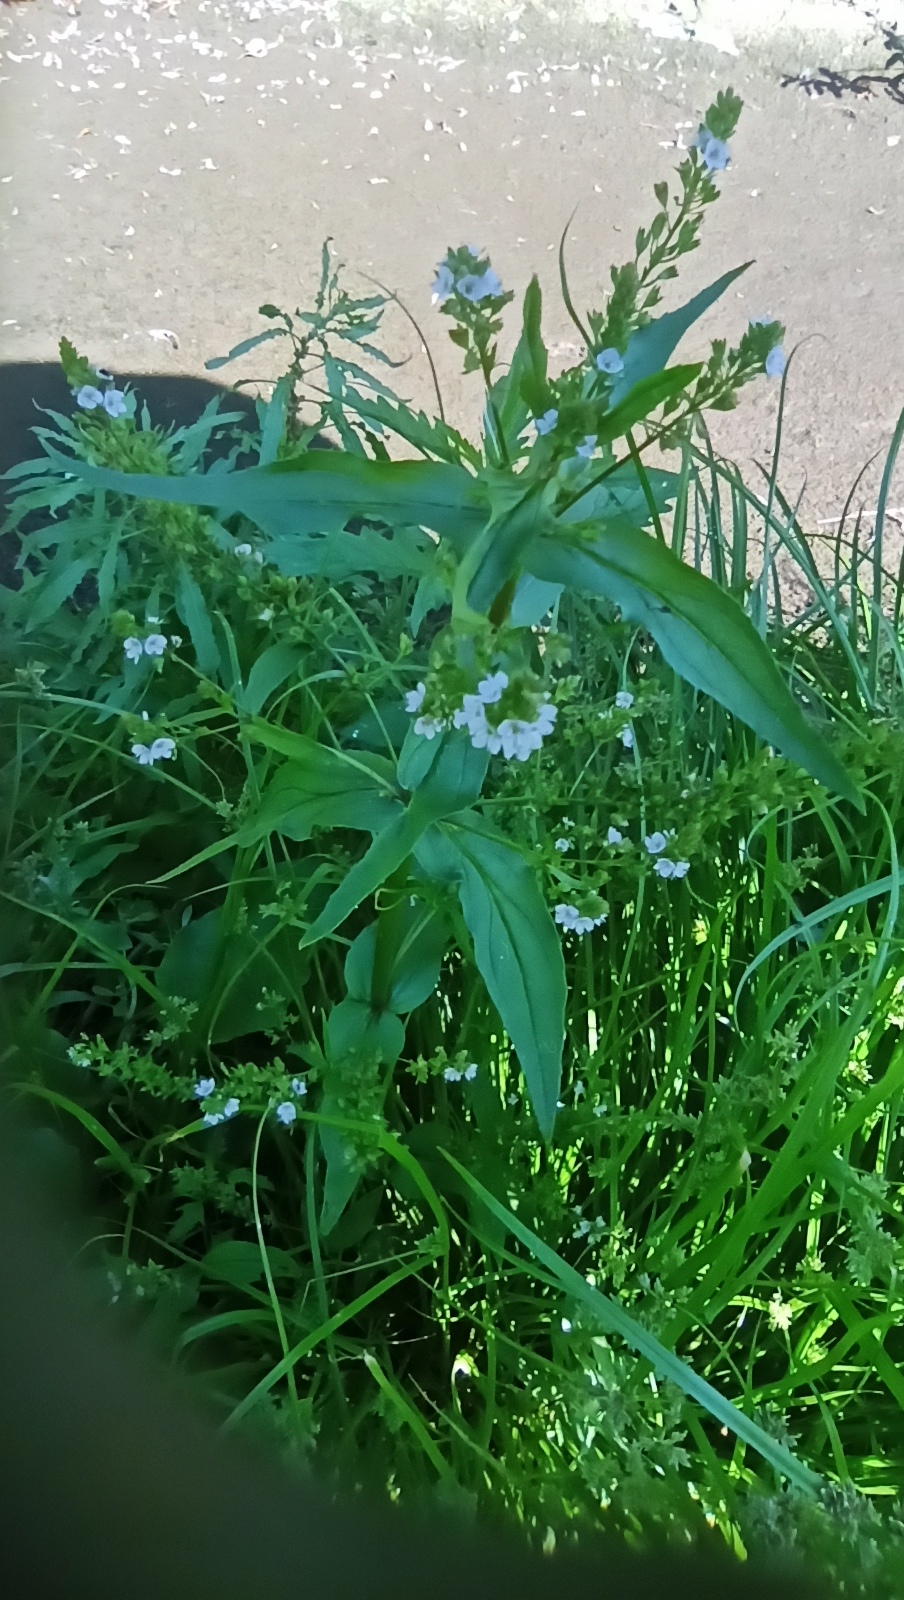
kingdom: Plantae
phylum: Tracheophyta
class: Magnoliopsida
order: Lamiales
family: Plantaginaceae
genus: Veronica
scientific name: Veronica anagallis-aquatica
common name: Water speedwell
